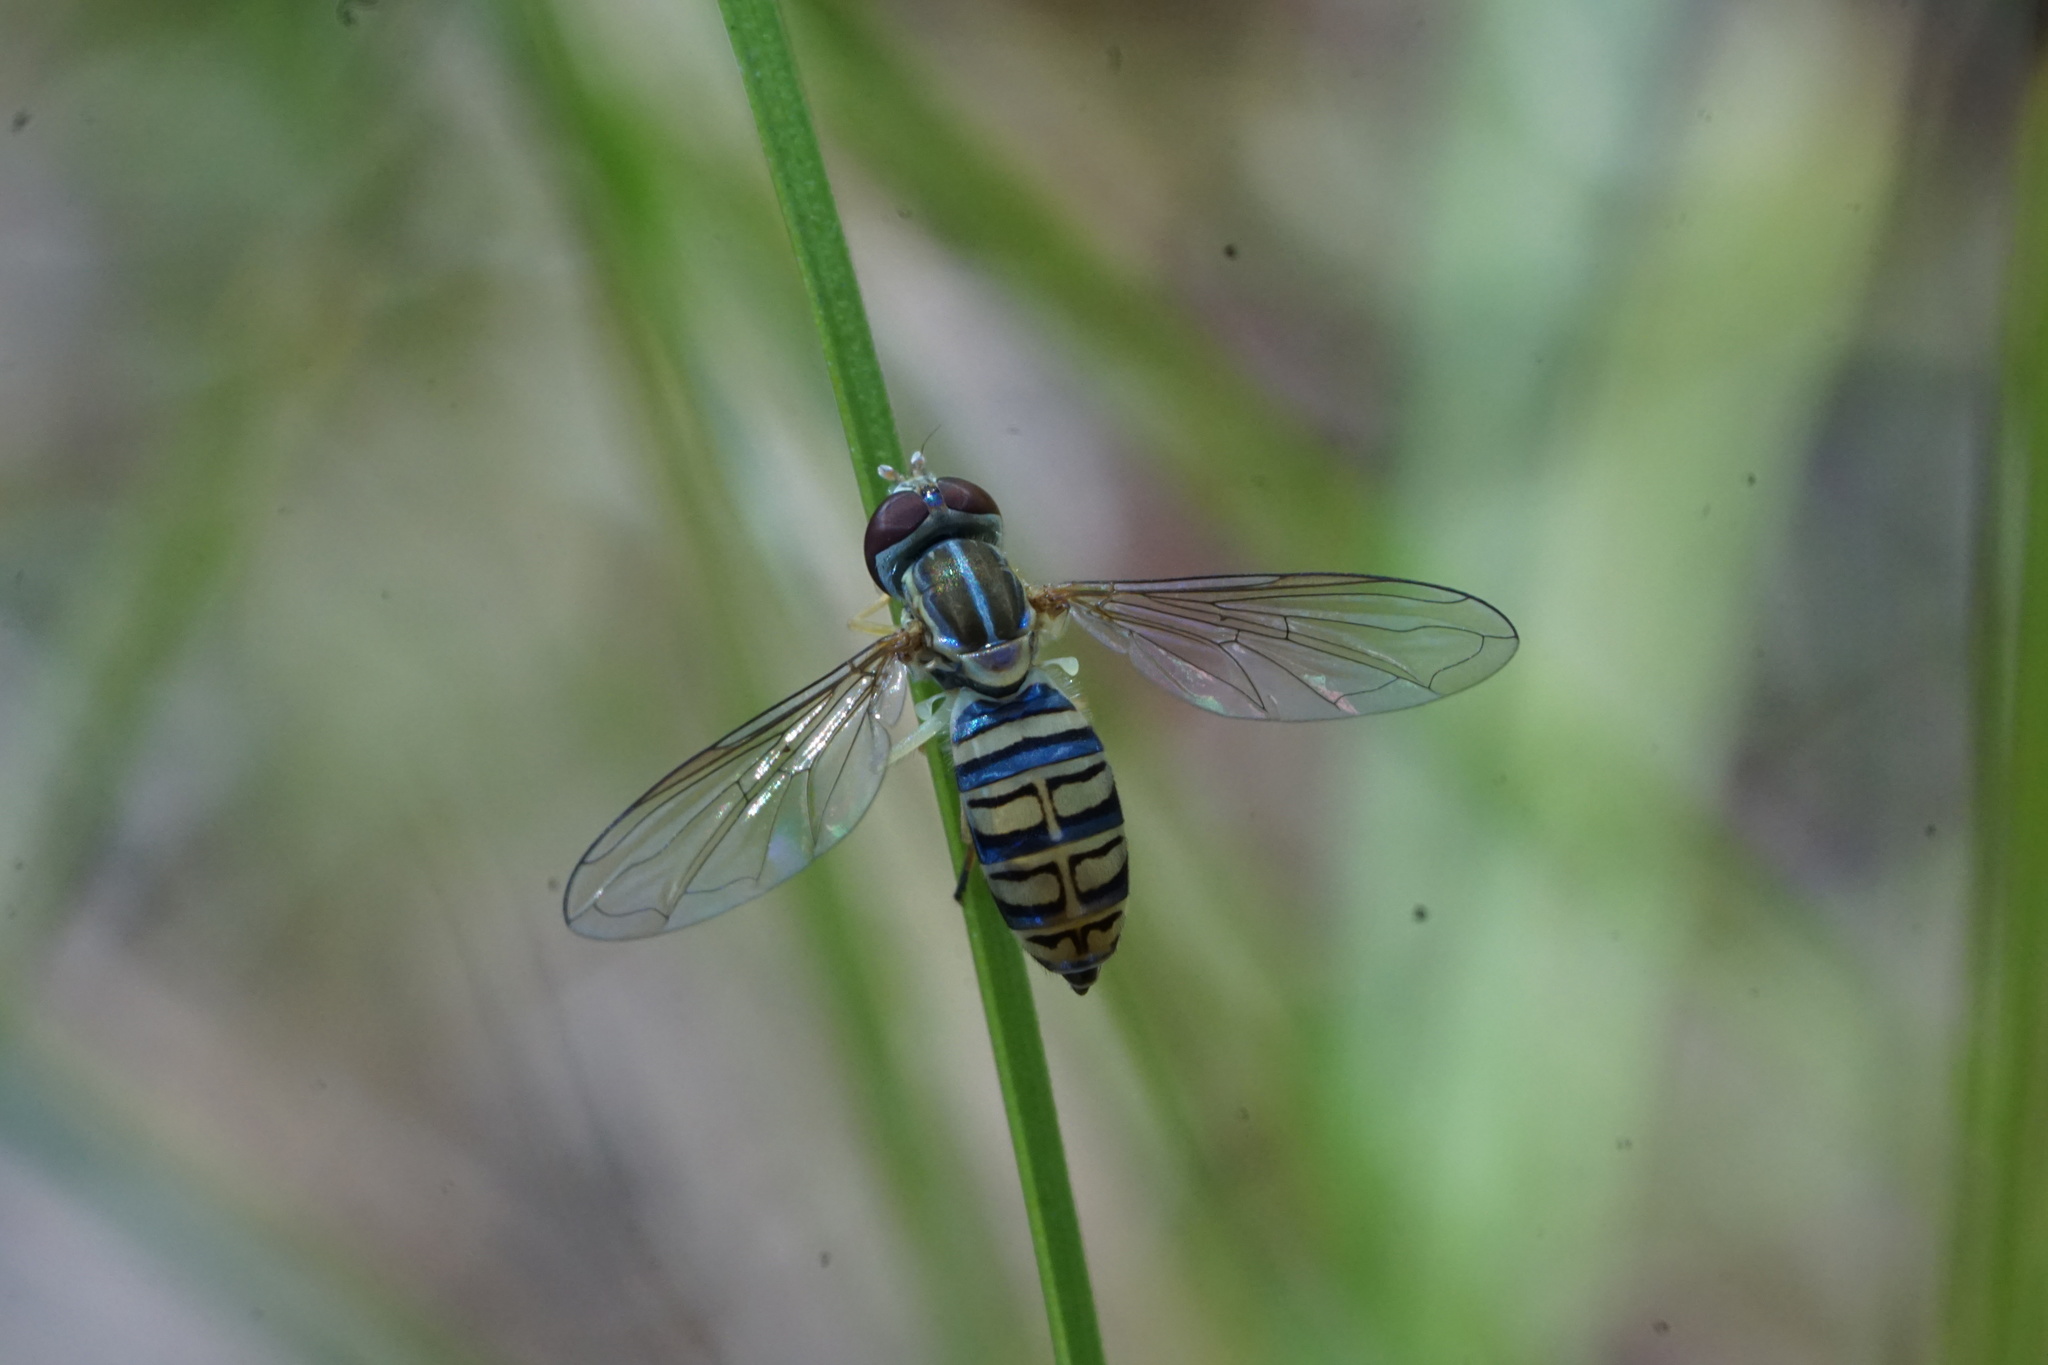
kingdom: Animalia
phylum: Arthropoda
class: Insecta
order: Diptera
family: Syrphidae
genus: Toxomerus
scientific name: Toxomerus politus
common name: Maize calligrapher
